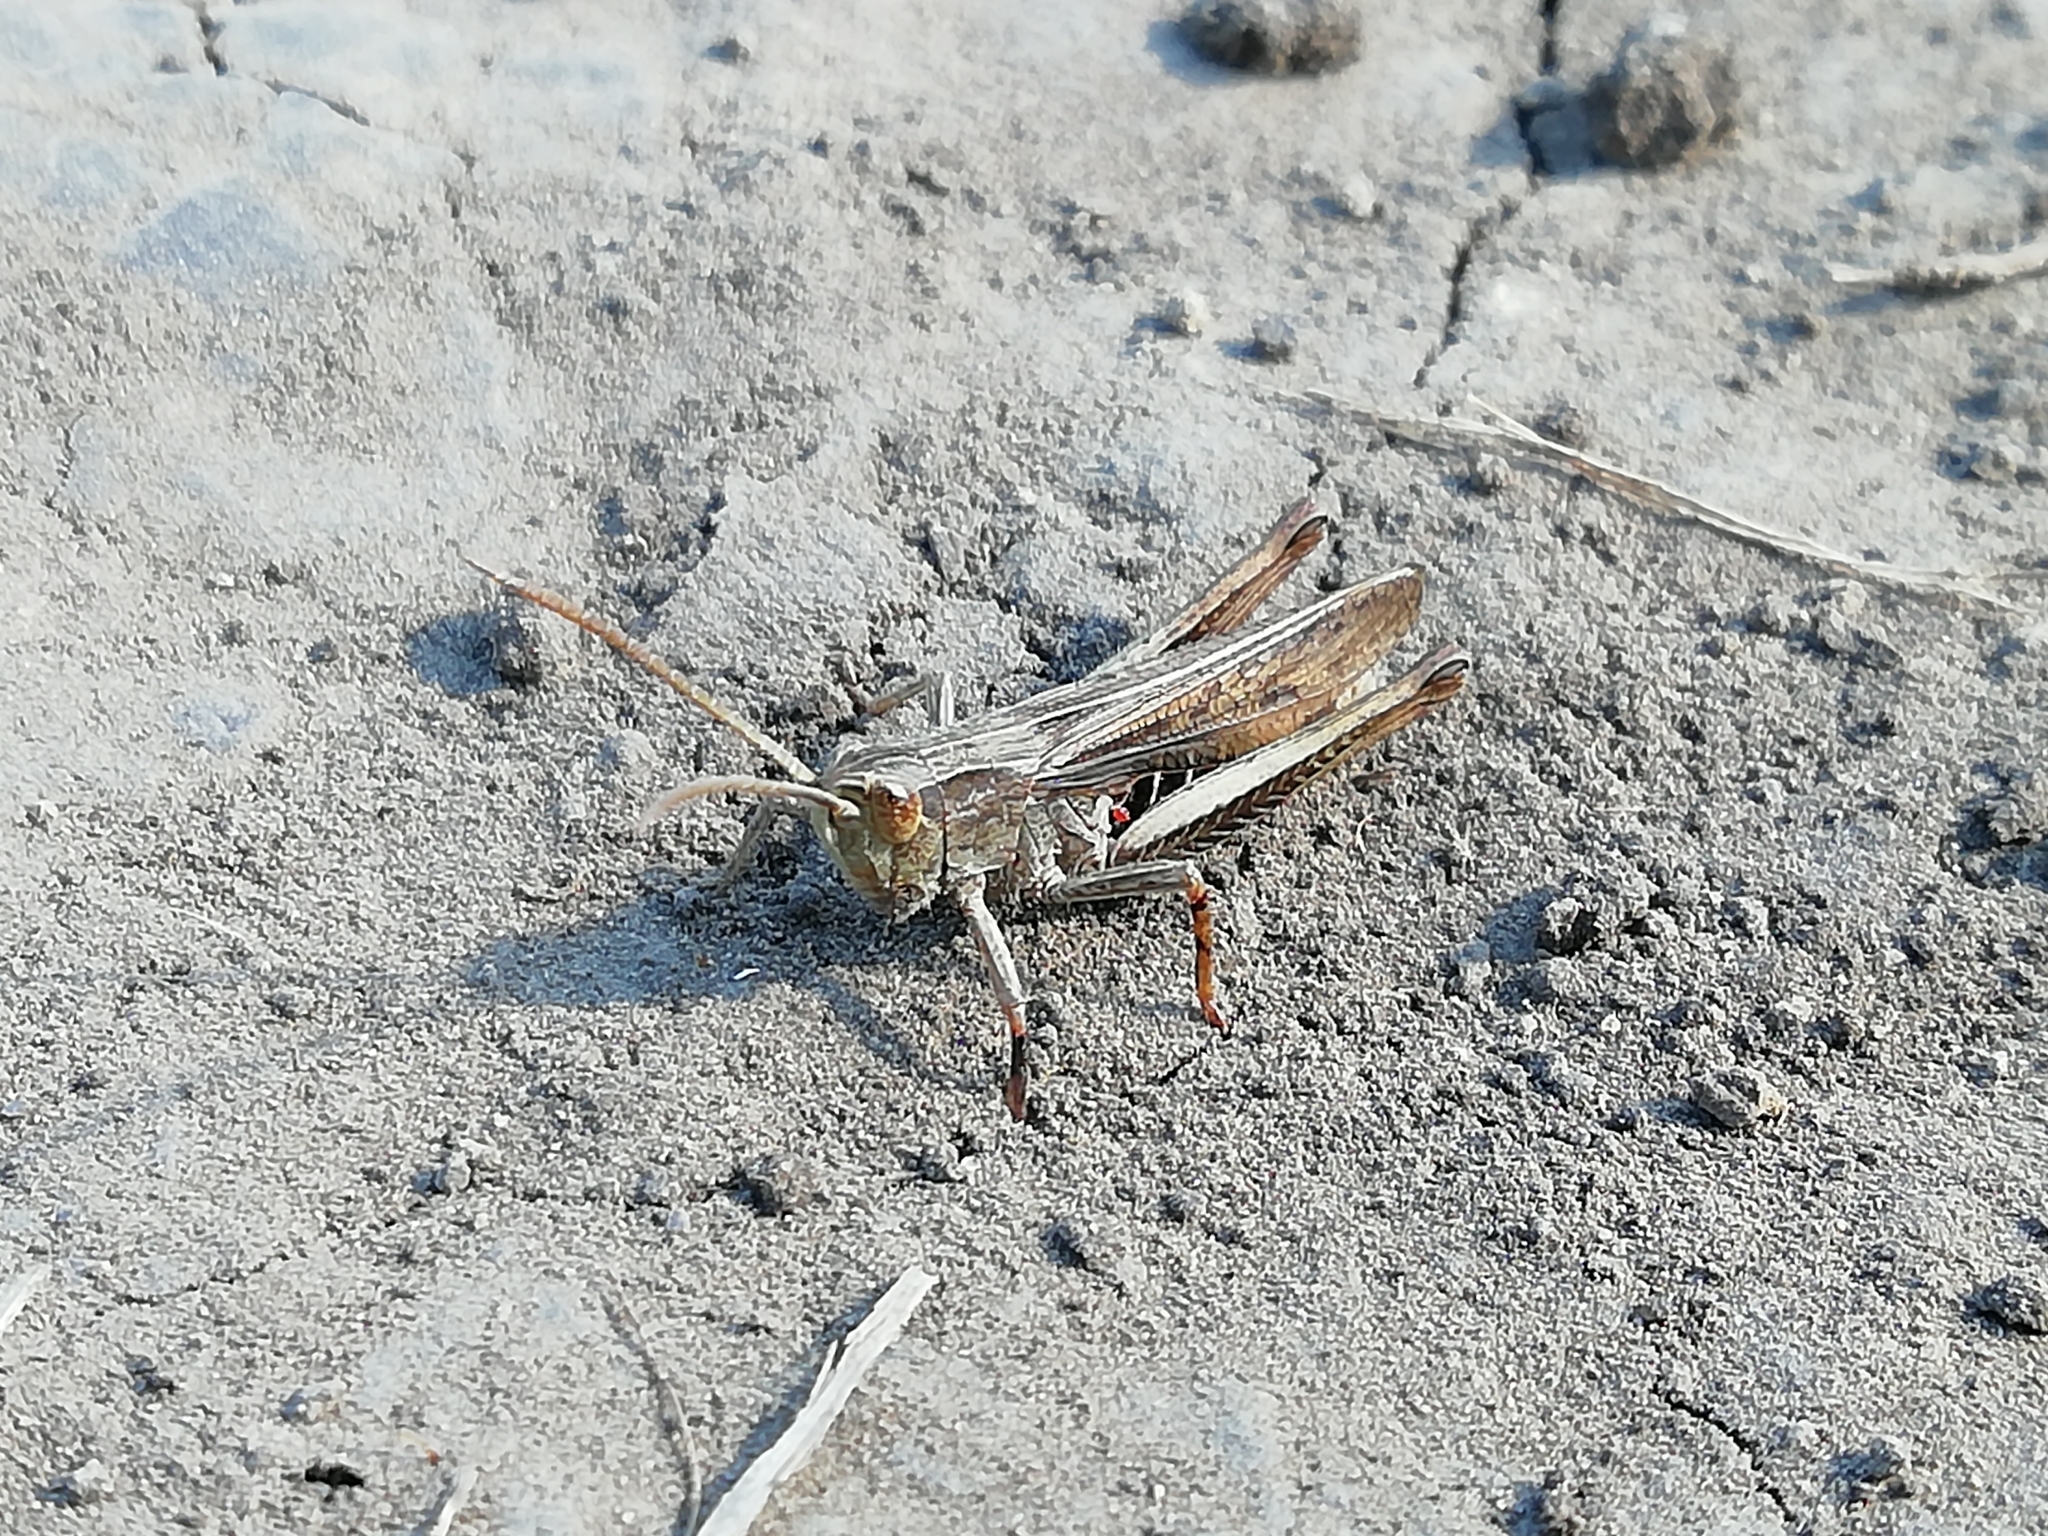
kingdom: Animalia
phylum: Arthropoda
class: Insecta
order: Orthoptera
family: Acrididae
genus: Chorthippus
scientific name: Chorthippus dorsatus
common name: Steppe grasshopper
